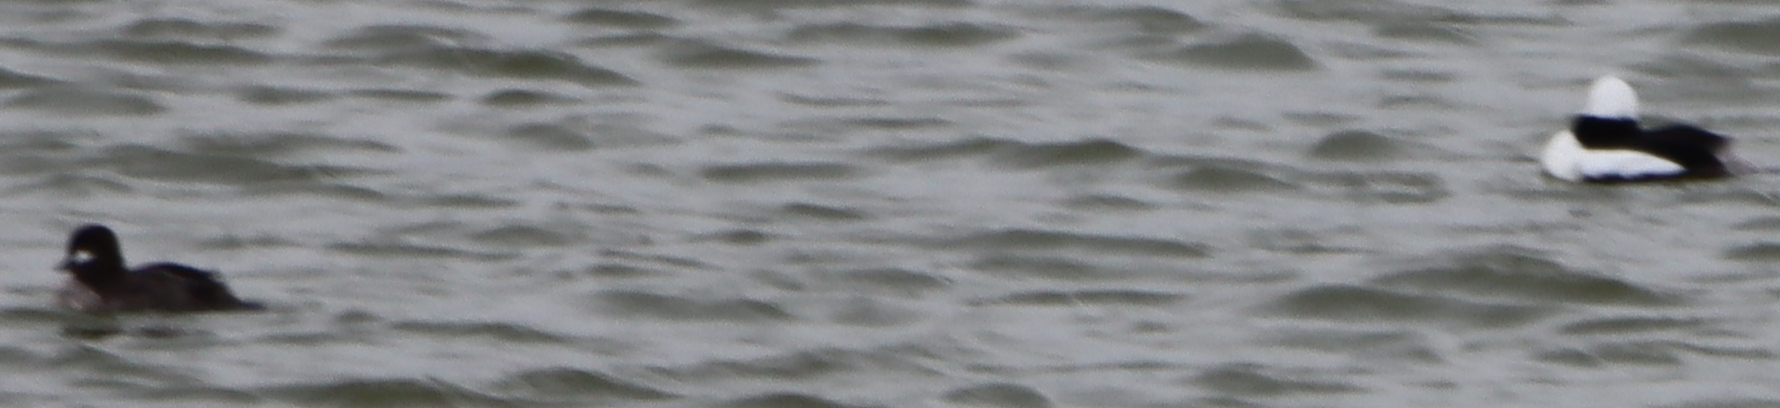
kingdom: Animalia
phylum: Chordata
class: Aves
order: Anseriformes
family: Anatidae
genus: Bucephala
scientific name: Bucephala albeola
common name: Bufflehead
